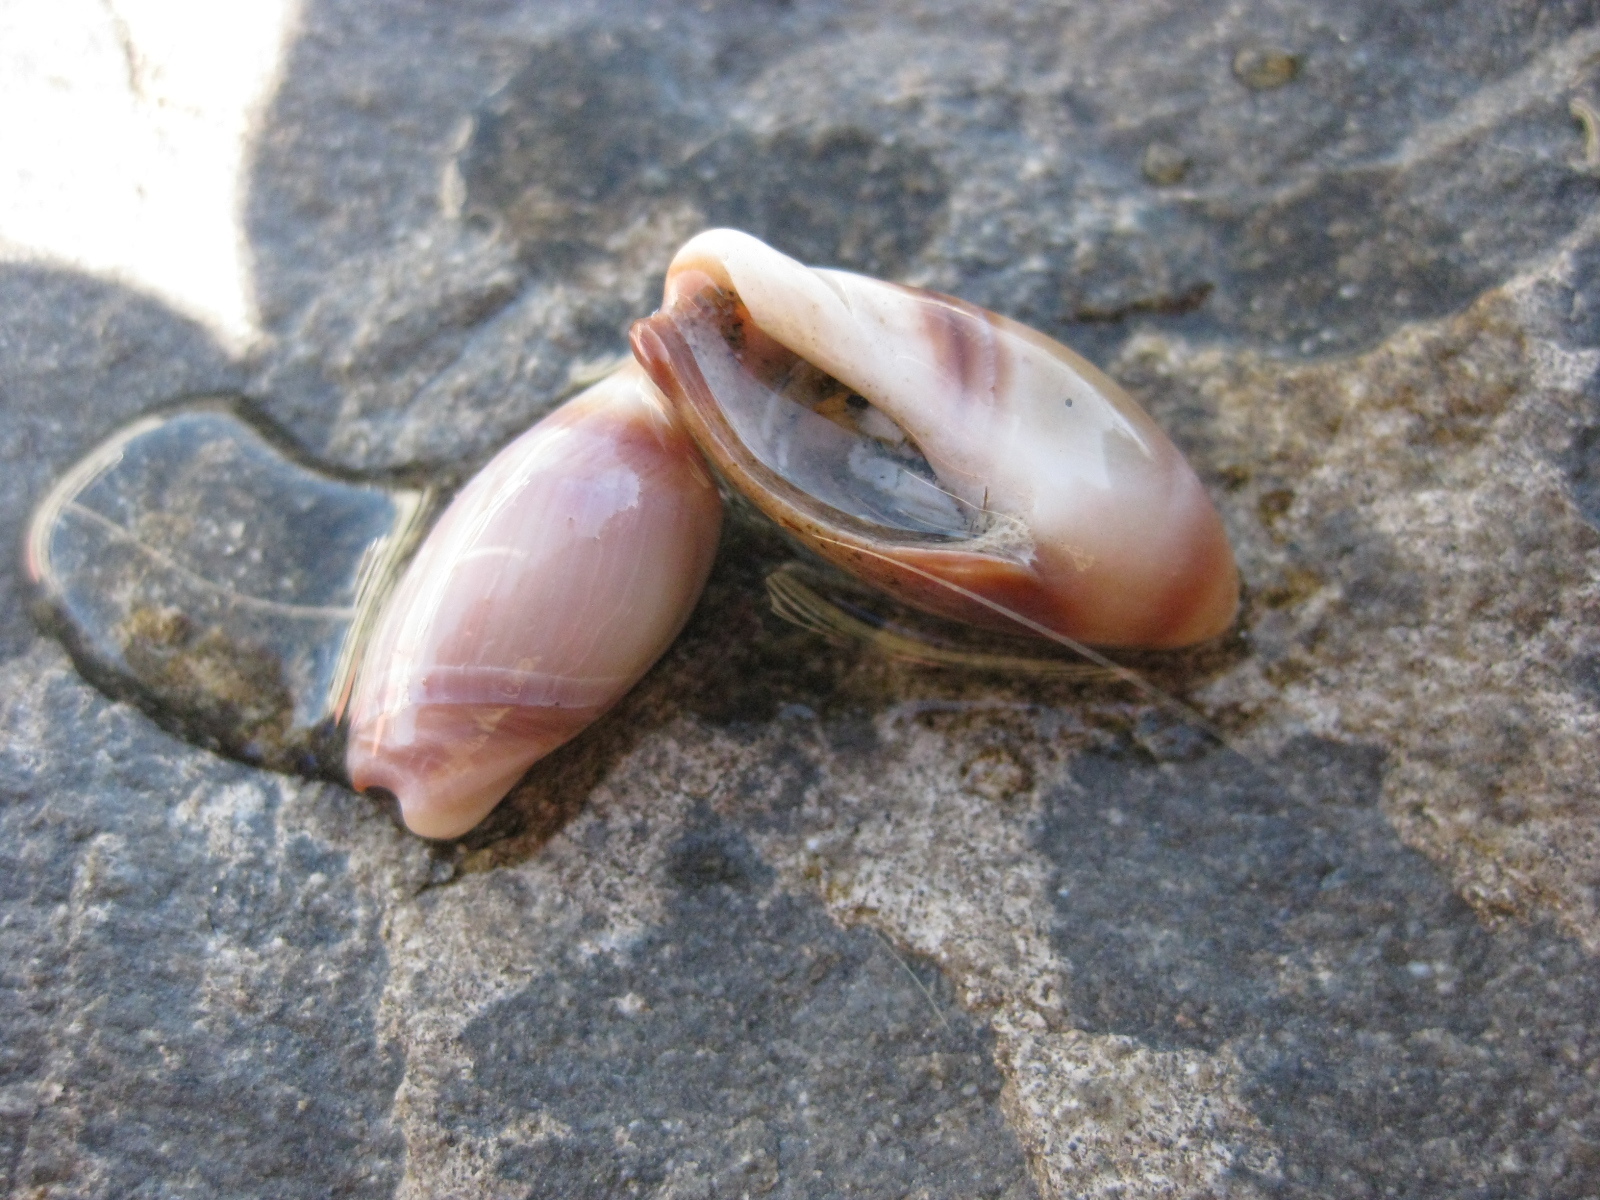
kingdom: Animalia
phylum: Mollusca
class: Gastropoda
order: Neogastropoda
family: Ancillariidae
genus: Amalda
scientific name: Amalda australis
